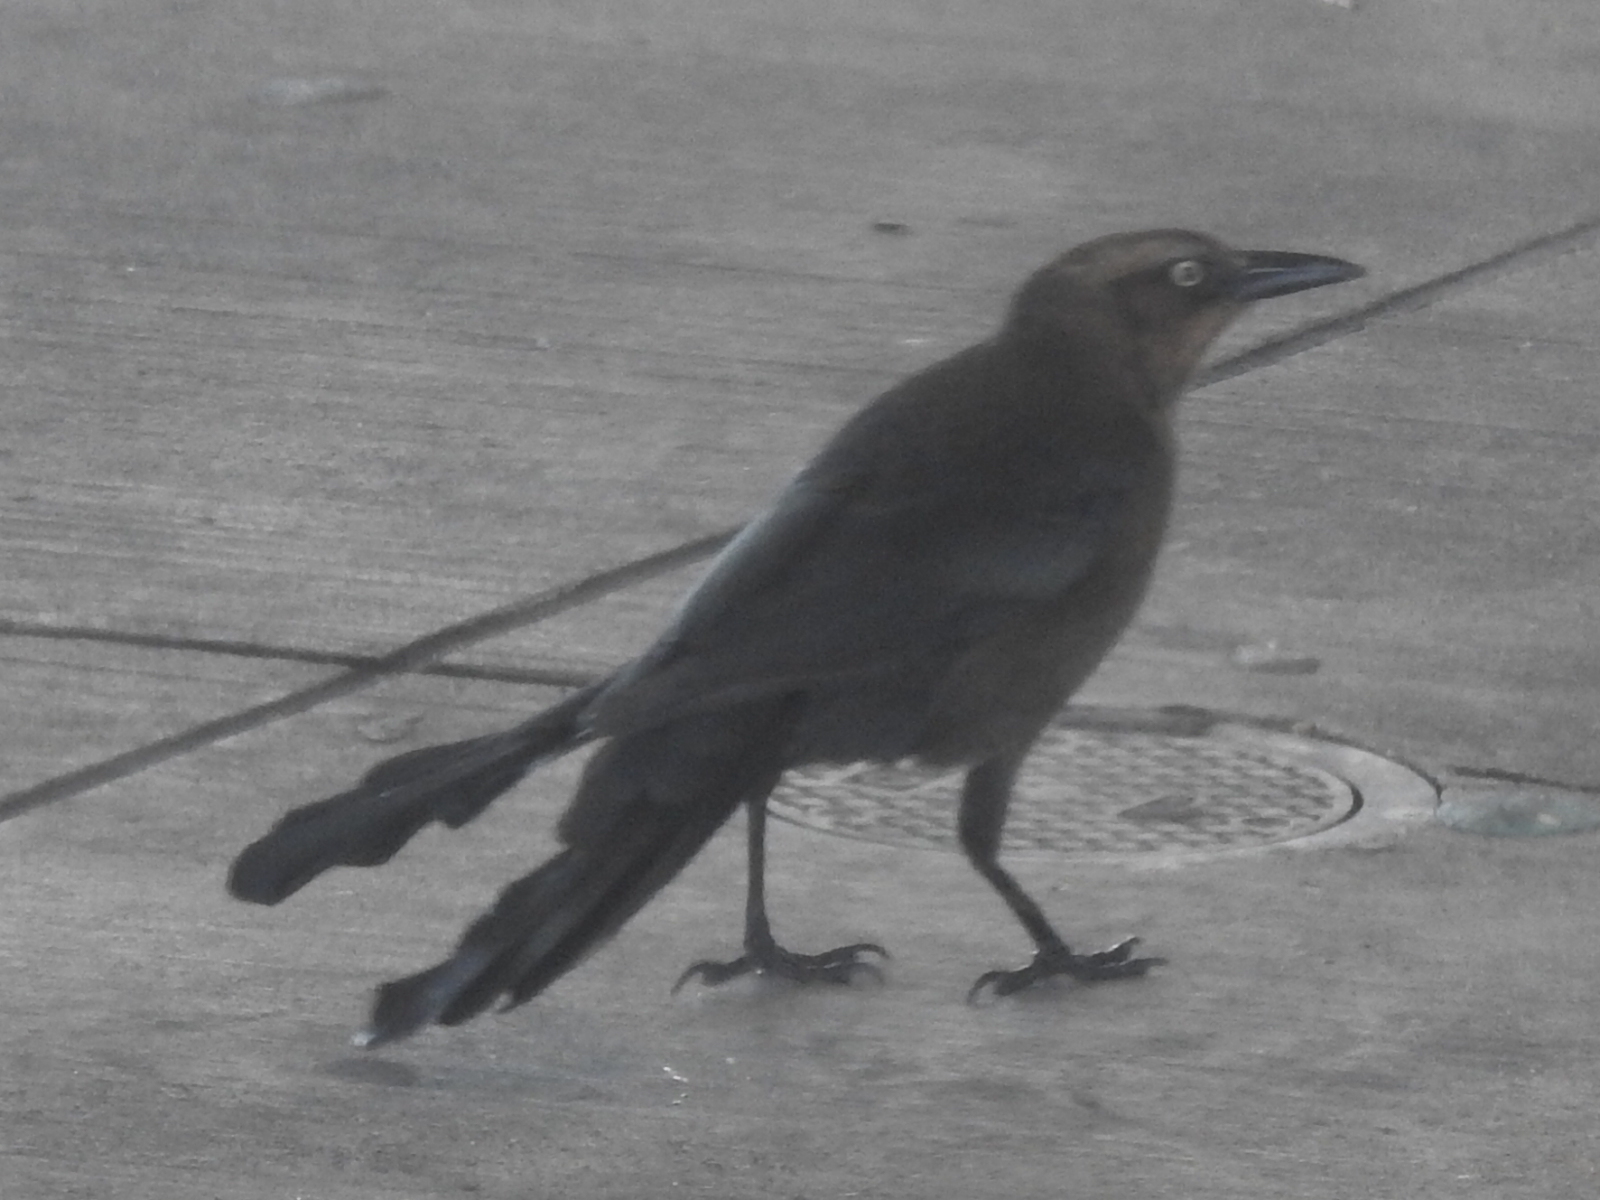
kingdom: Animalia
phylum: Chordata
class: Aves
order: Passeriformes
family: Icteridae
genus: Quiscalus
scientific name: Quiscalus mexicanus
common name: Great-tailed grackle
